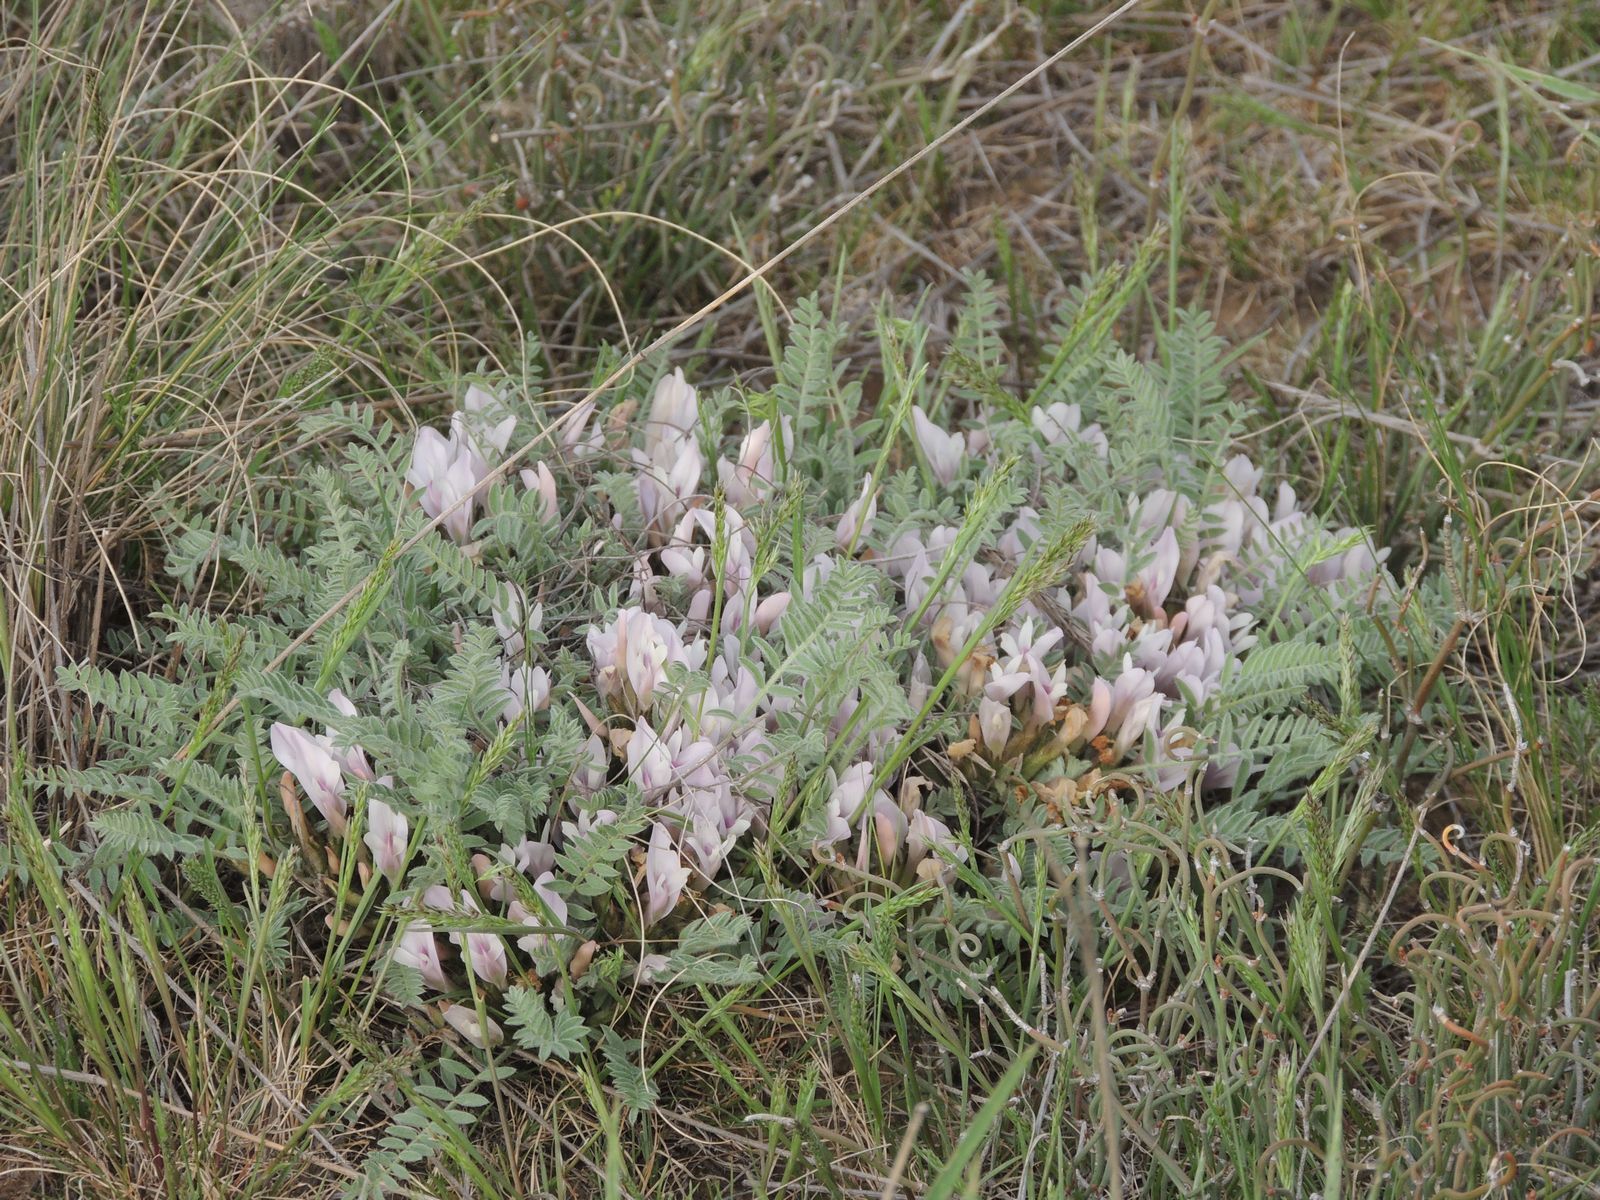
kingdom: Plantae
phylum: Tracheophyta
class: Magnoliopsida
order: Fabales
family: Fabaceae
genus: Astragalus
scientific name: Astragalus testiculatus
